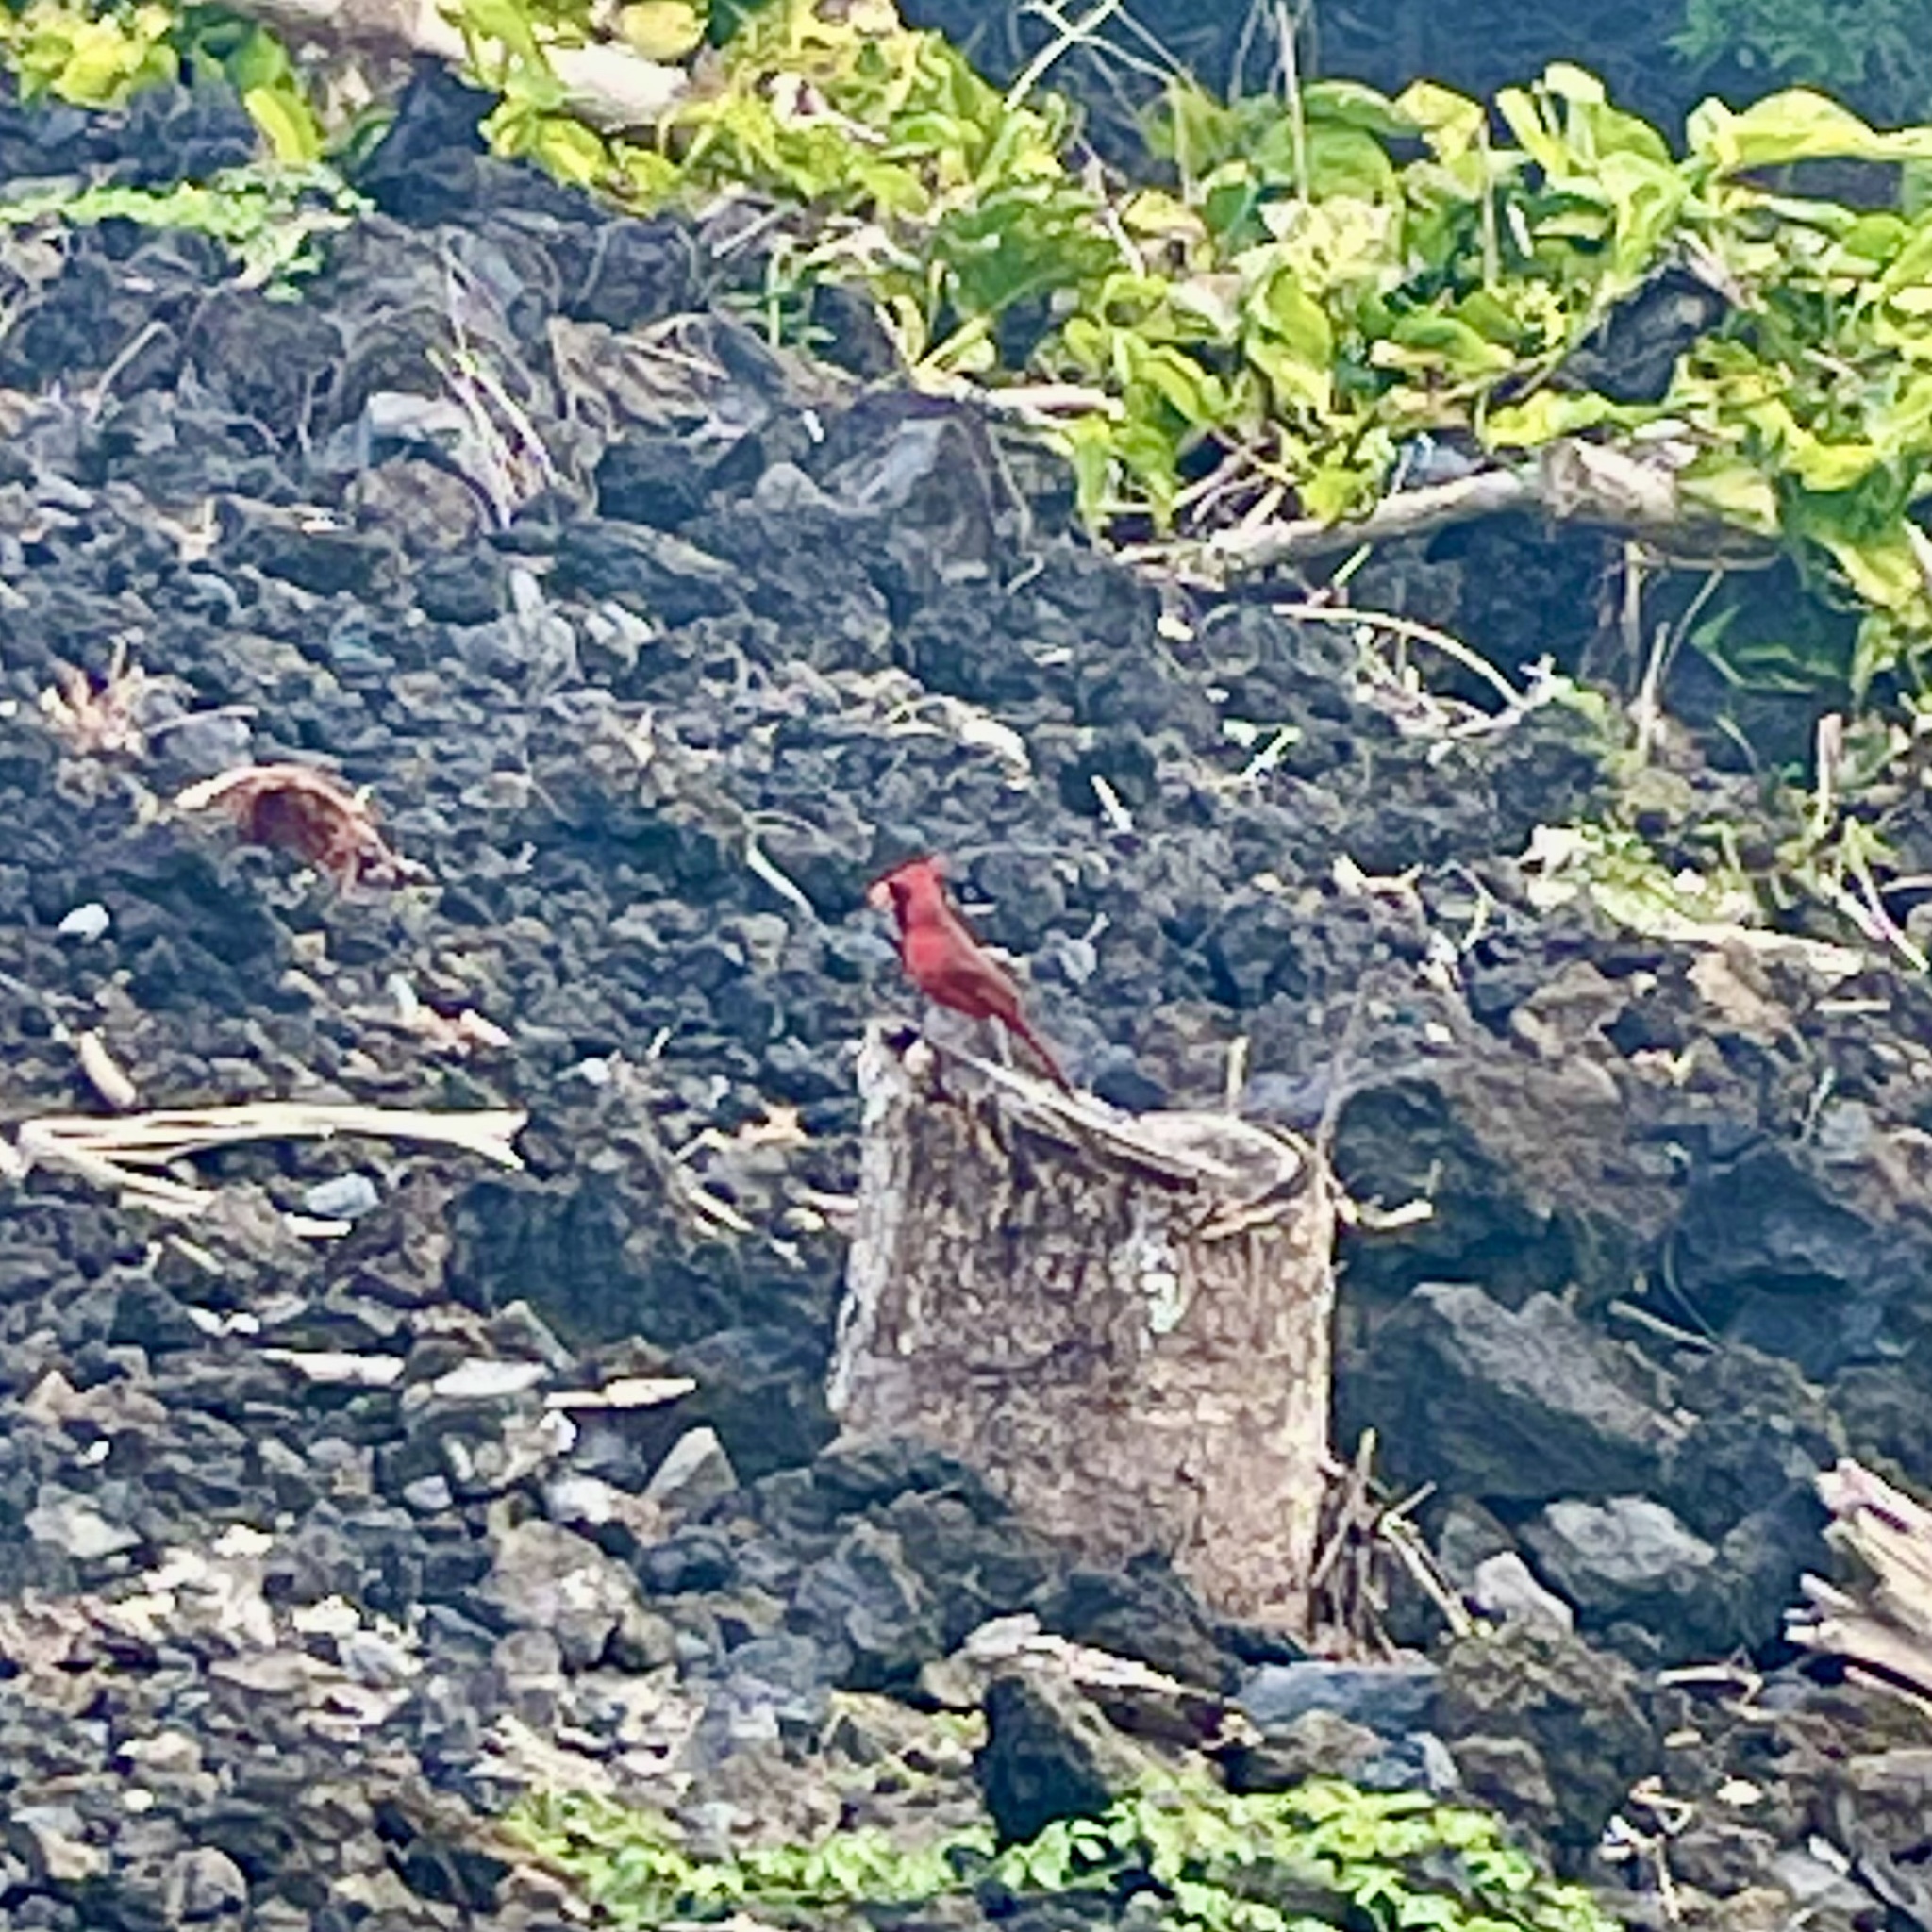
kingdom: Animalia
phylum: Chordata
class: Aves
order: Passeriformes
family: Cardinalidae
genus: Cardinalis
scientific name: Cardinalis cardinalis
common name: Northern cardinal
